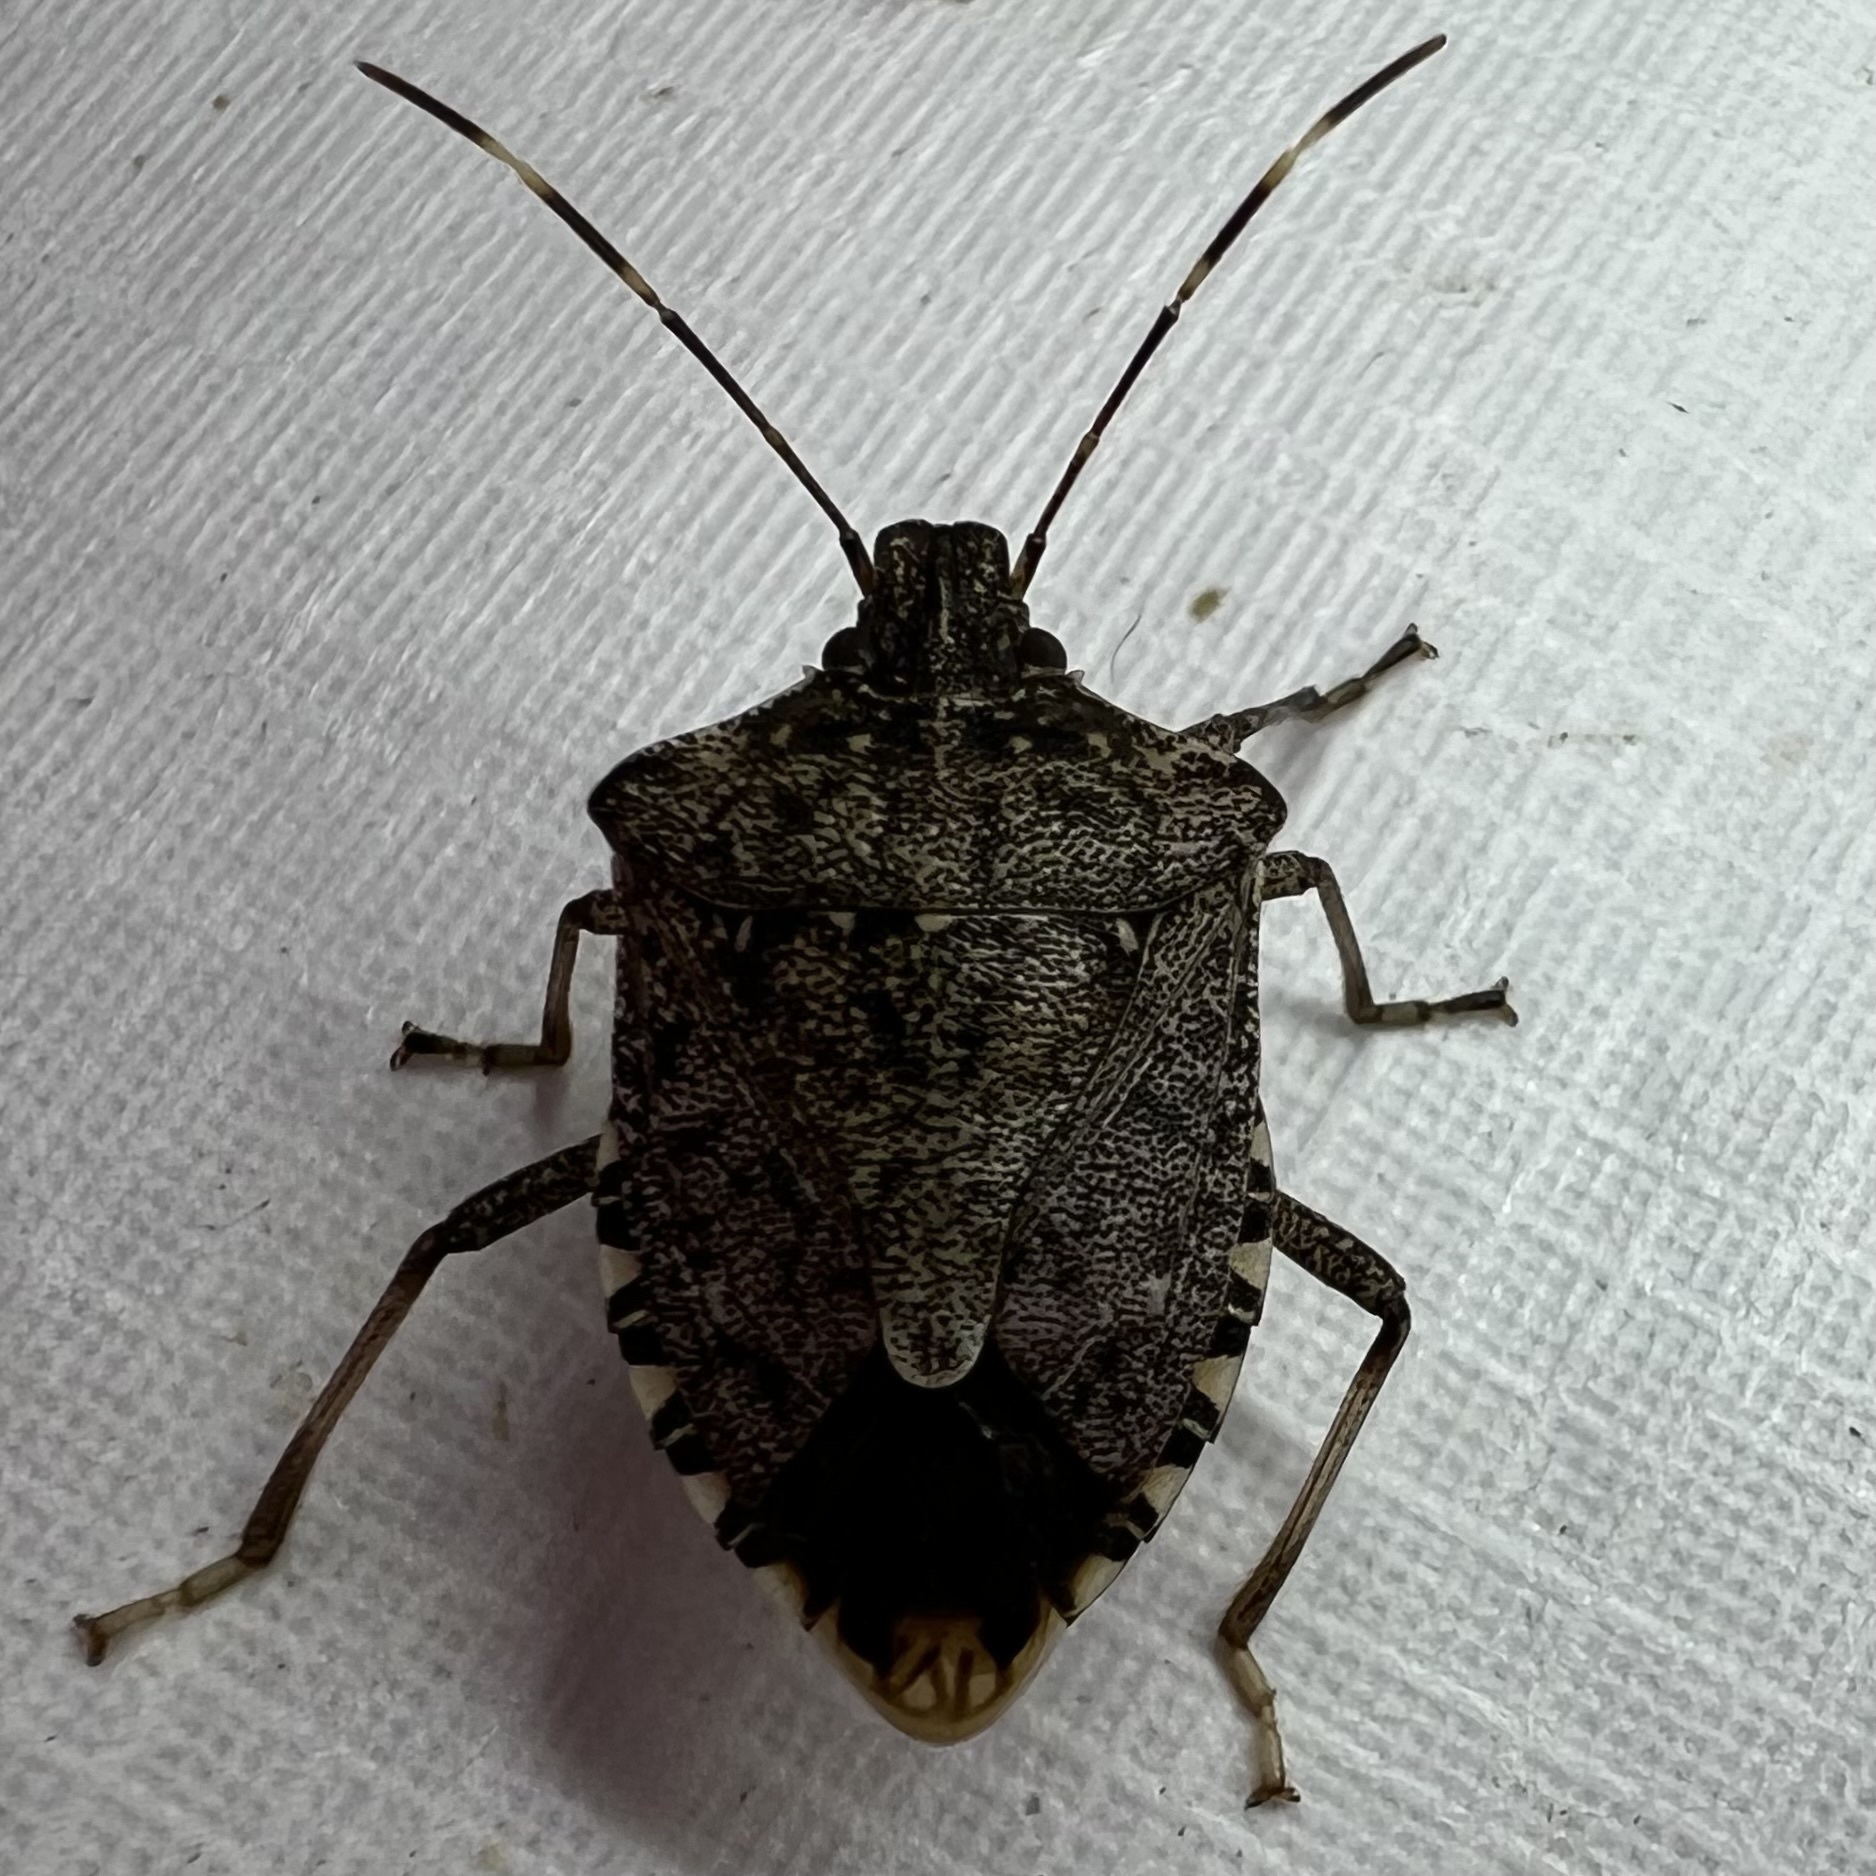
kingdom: Animalia
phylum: Arthropoda
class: Insecta
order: Hemiptera
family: Pentatomidae
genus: Halyomorpha
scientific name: Halyomorpha halys
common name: Brown marmorated stink bug
